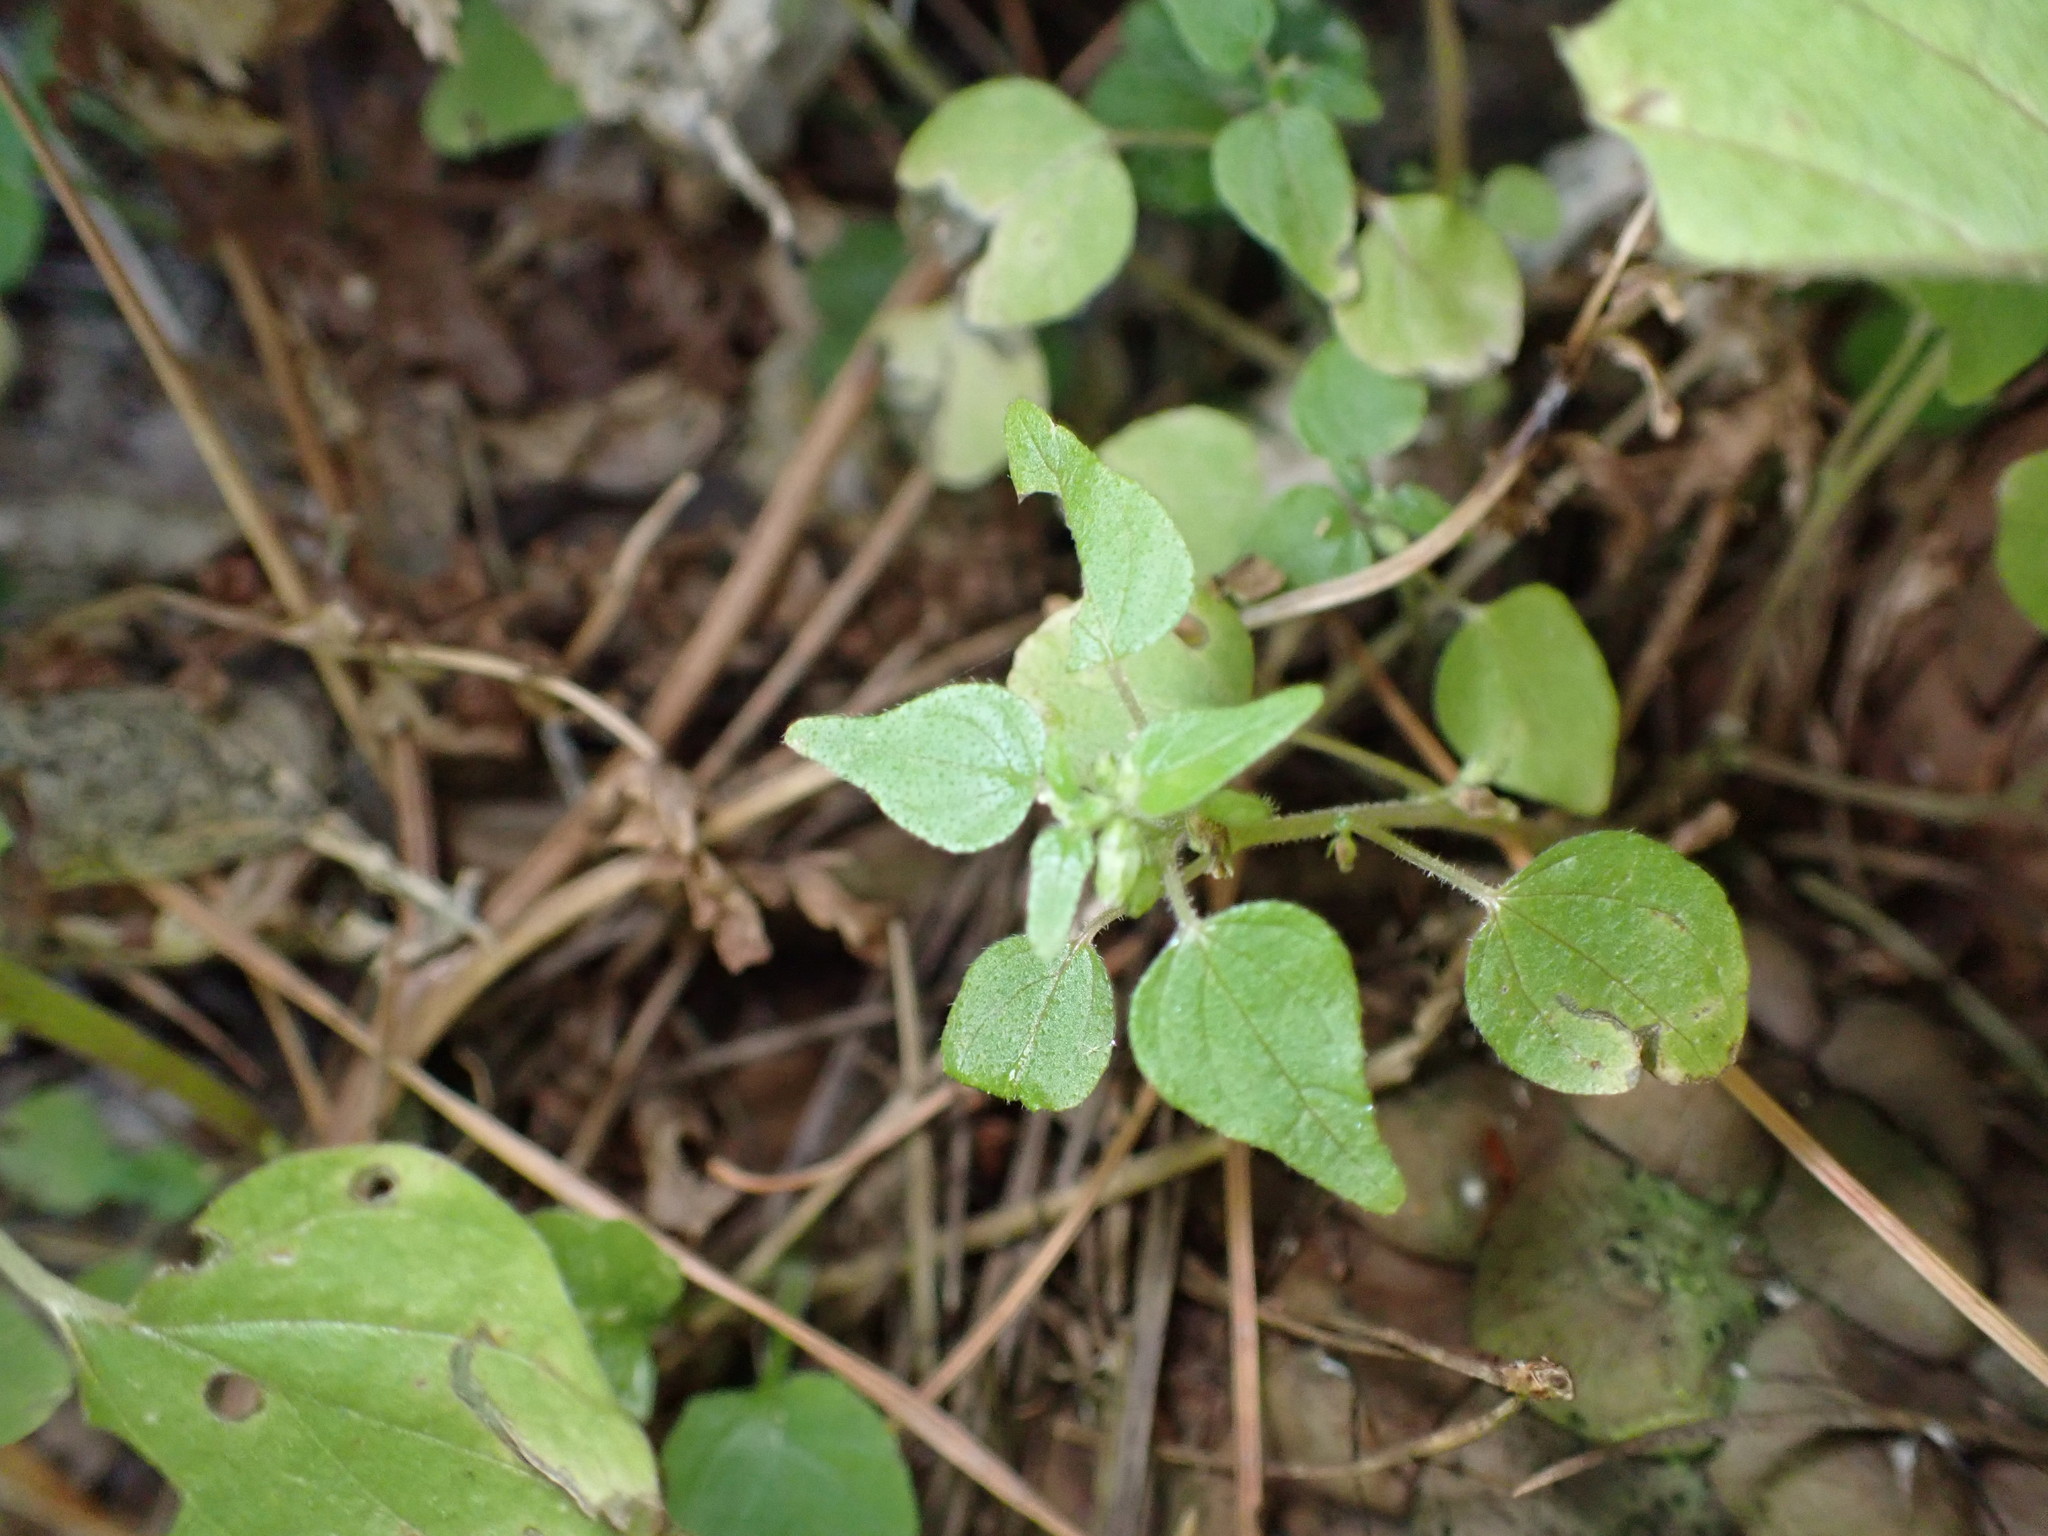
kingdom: Plantae
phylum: Tracheophyta
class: Magnoliopsida
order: Rosales
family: Urticaceae
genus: Parietaria
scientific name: Parietaria debilis
